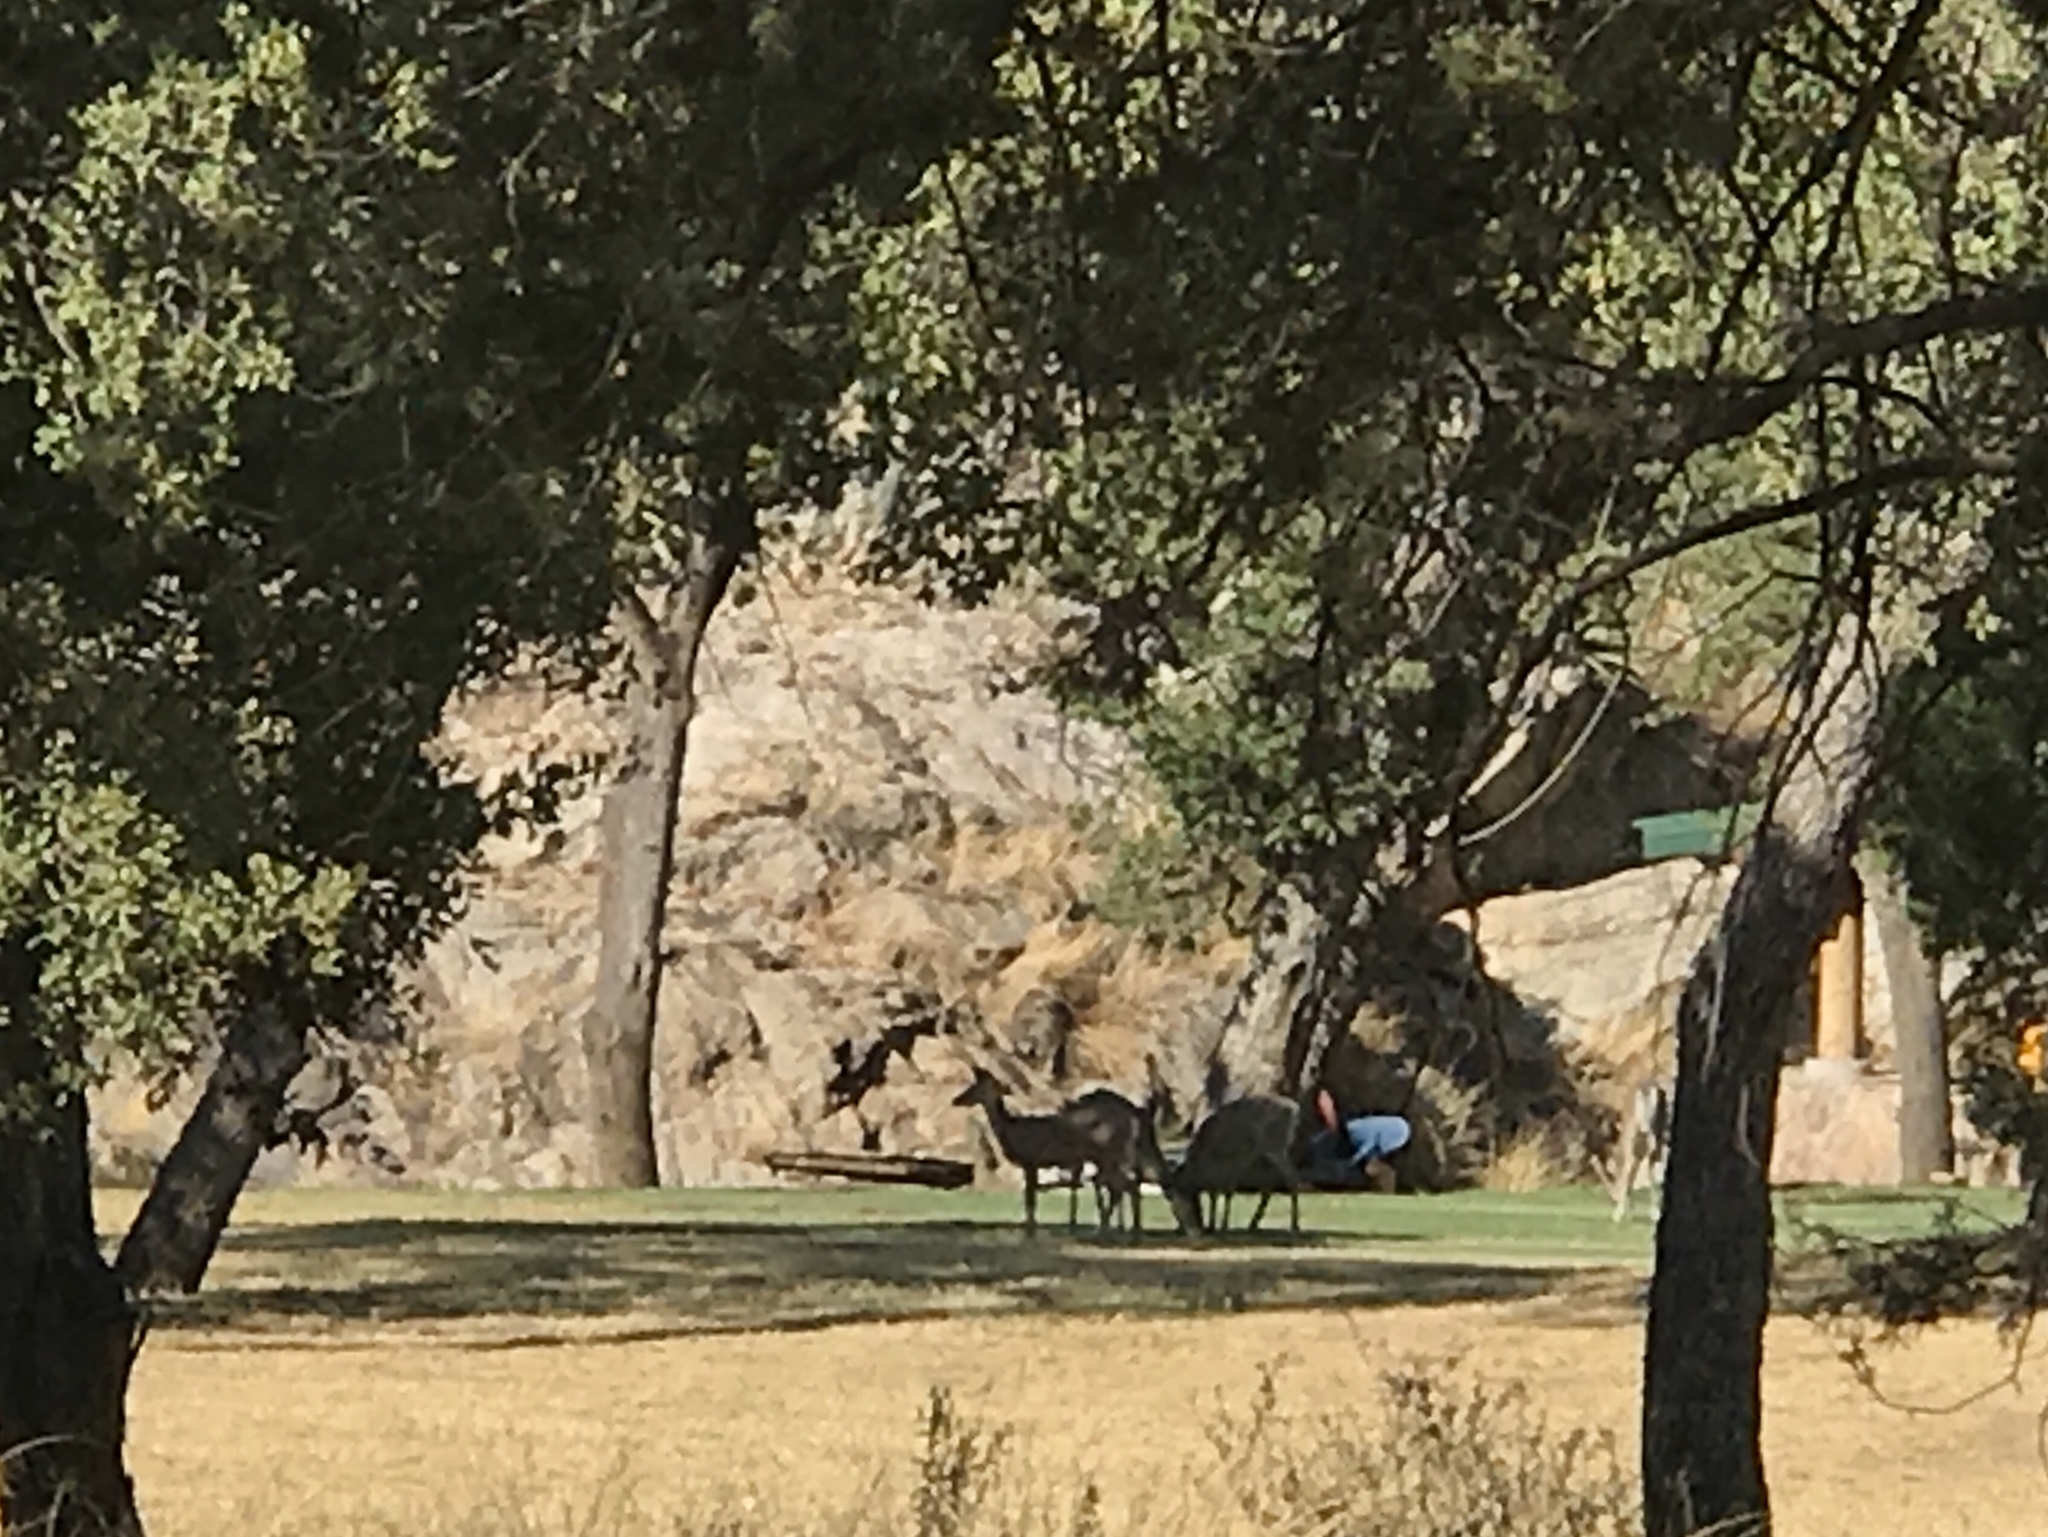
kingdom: Animalia
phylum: Chordata
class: Mammalia
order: Artiodactyla
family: Cervidae
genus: Odocoileus
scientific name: Odocoileus virginianus
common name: White-tailed deer
